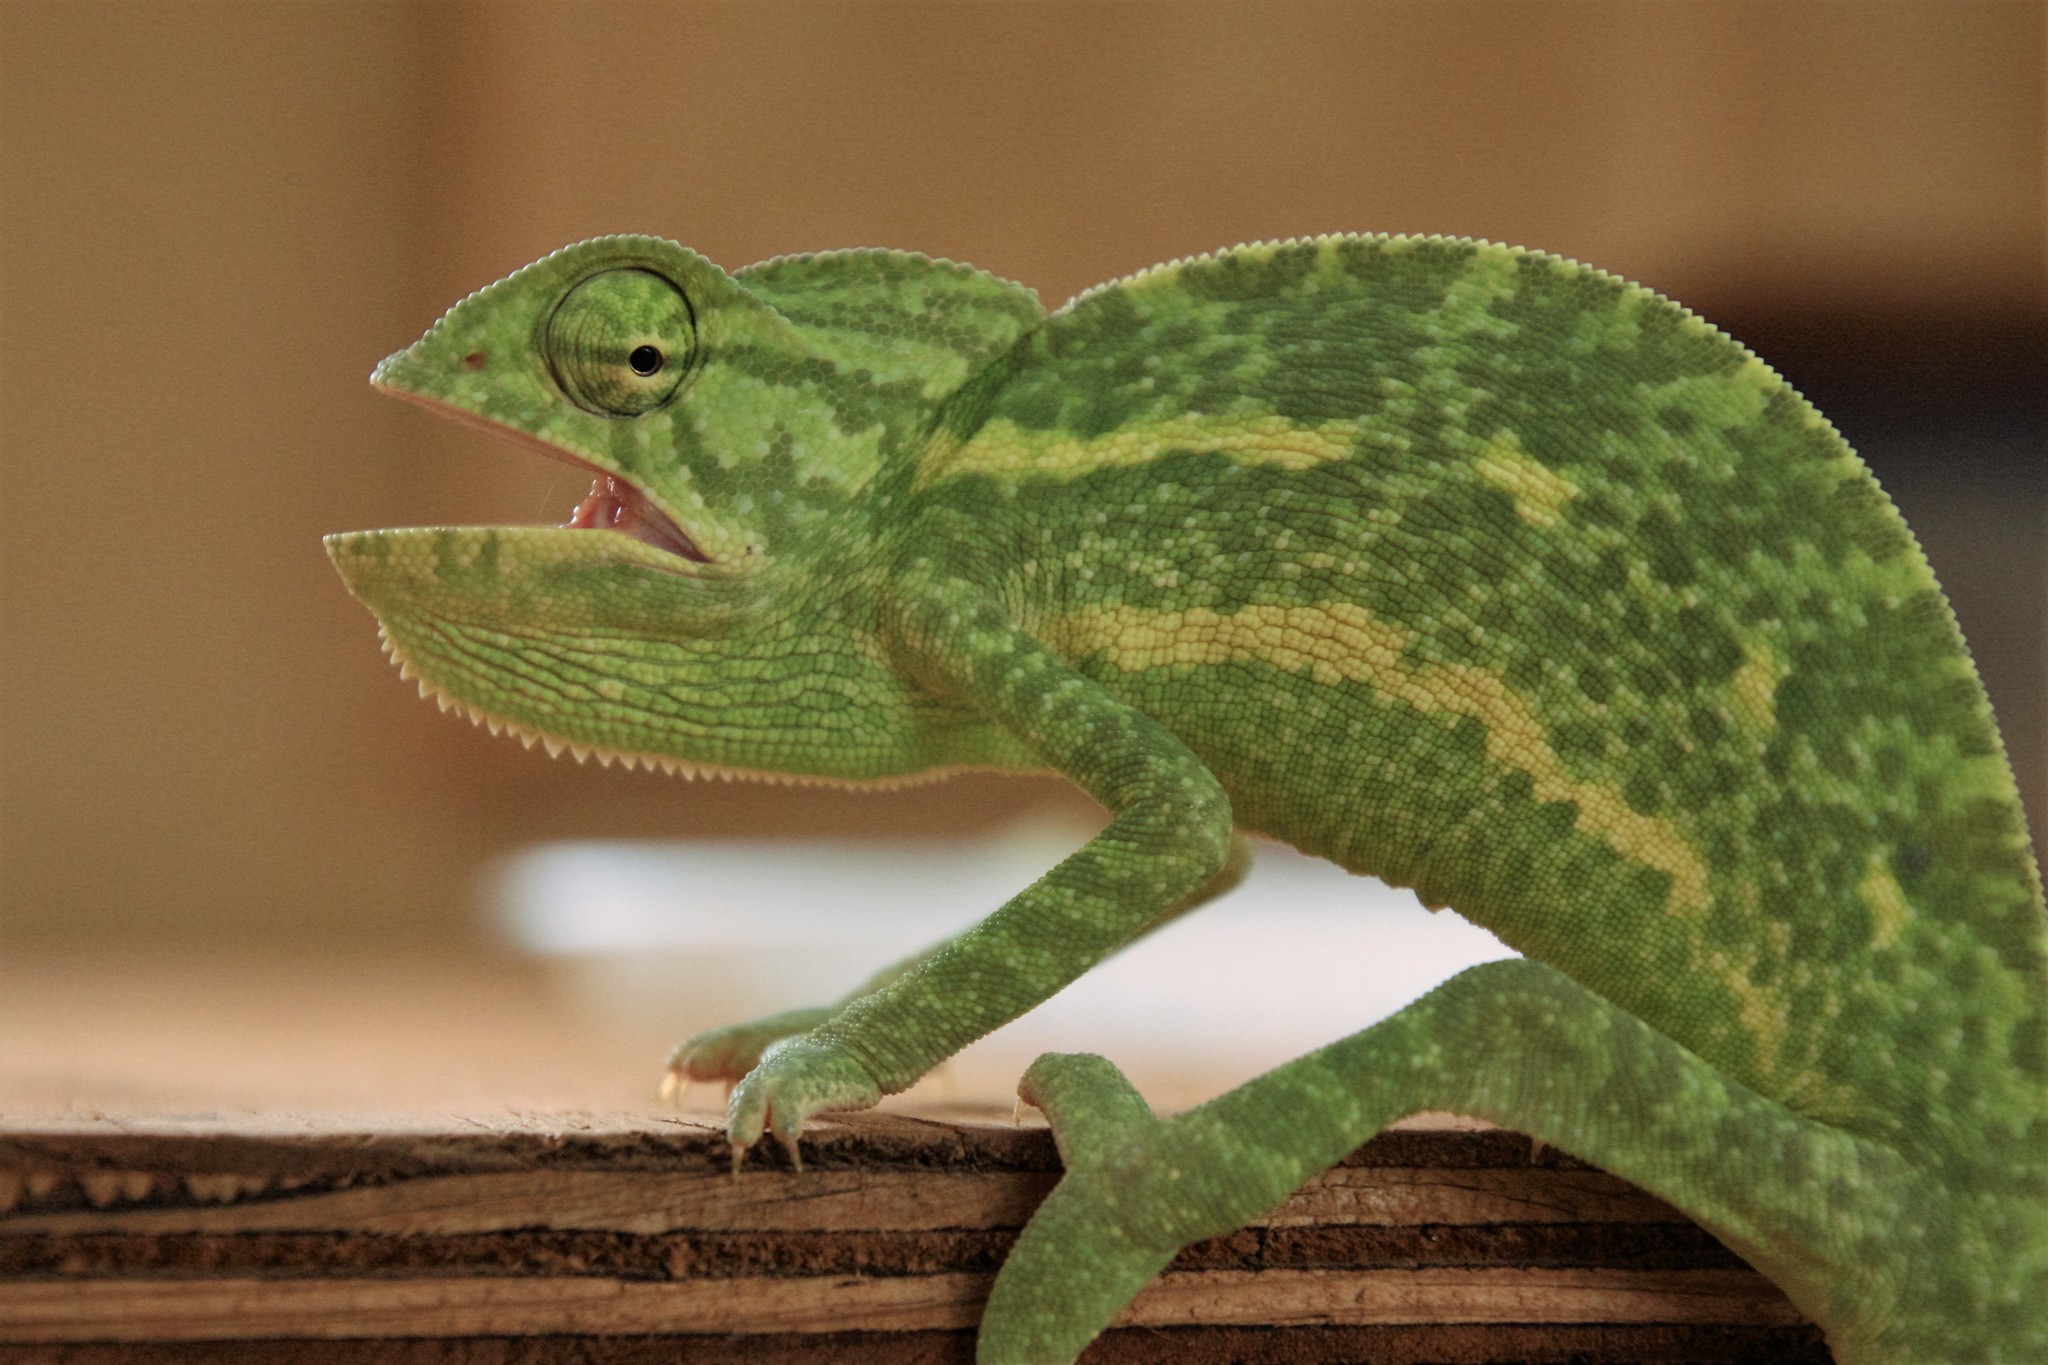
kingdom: Animalia
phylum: Chordata
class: Squamata
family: Chamaeleonidae
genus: Chamaeleo
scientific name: Chamaeleo africanus
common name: African chameleon
